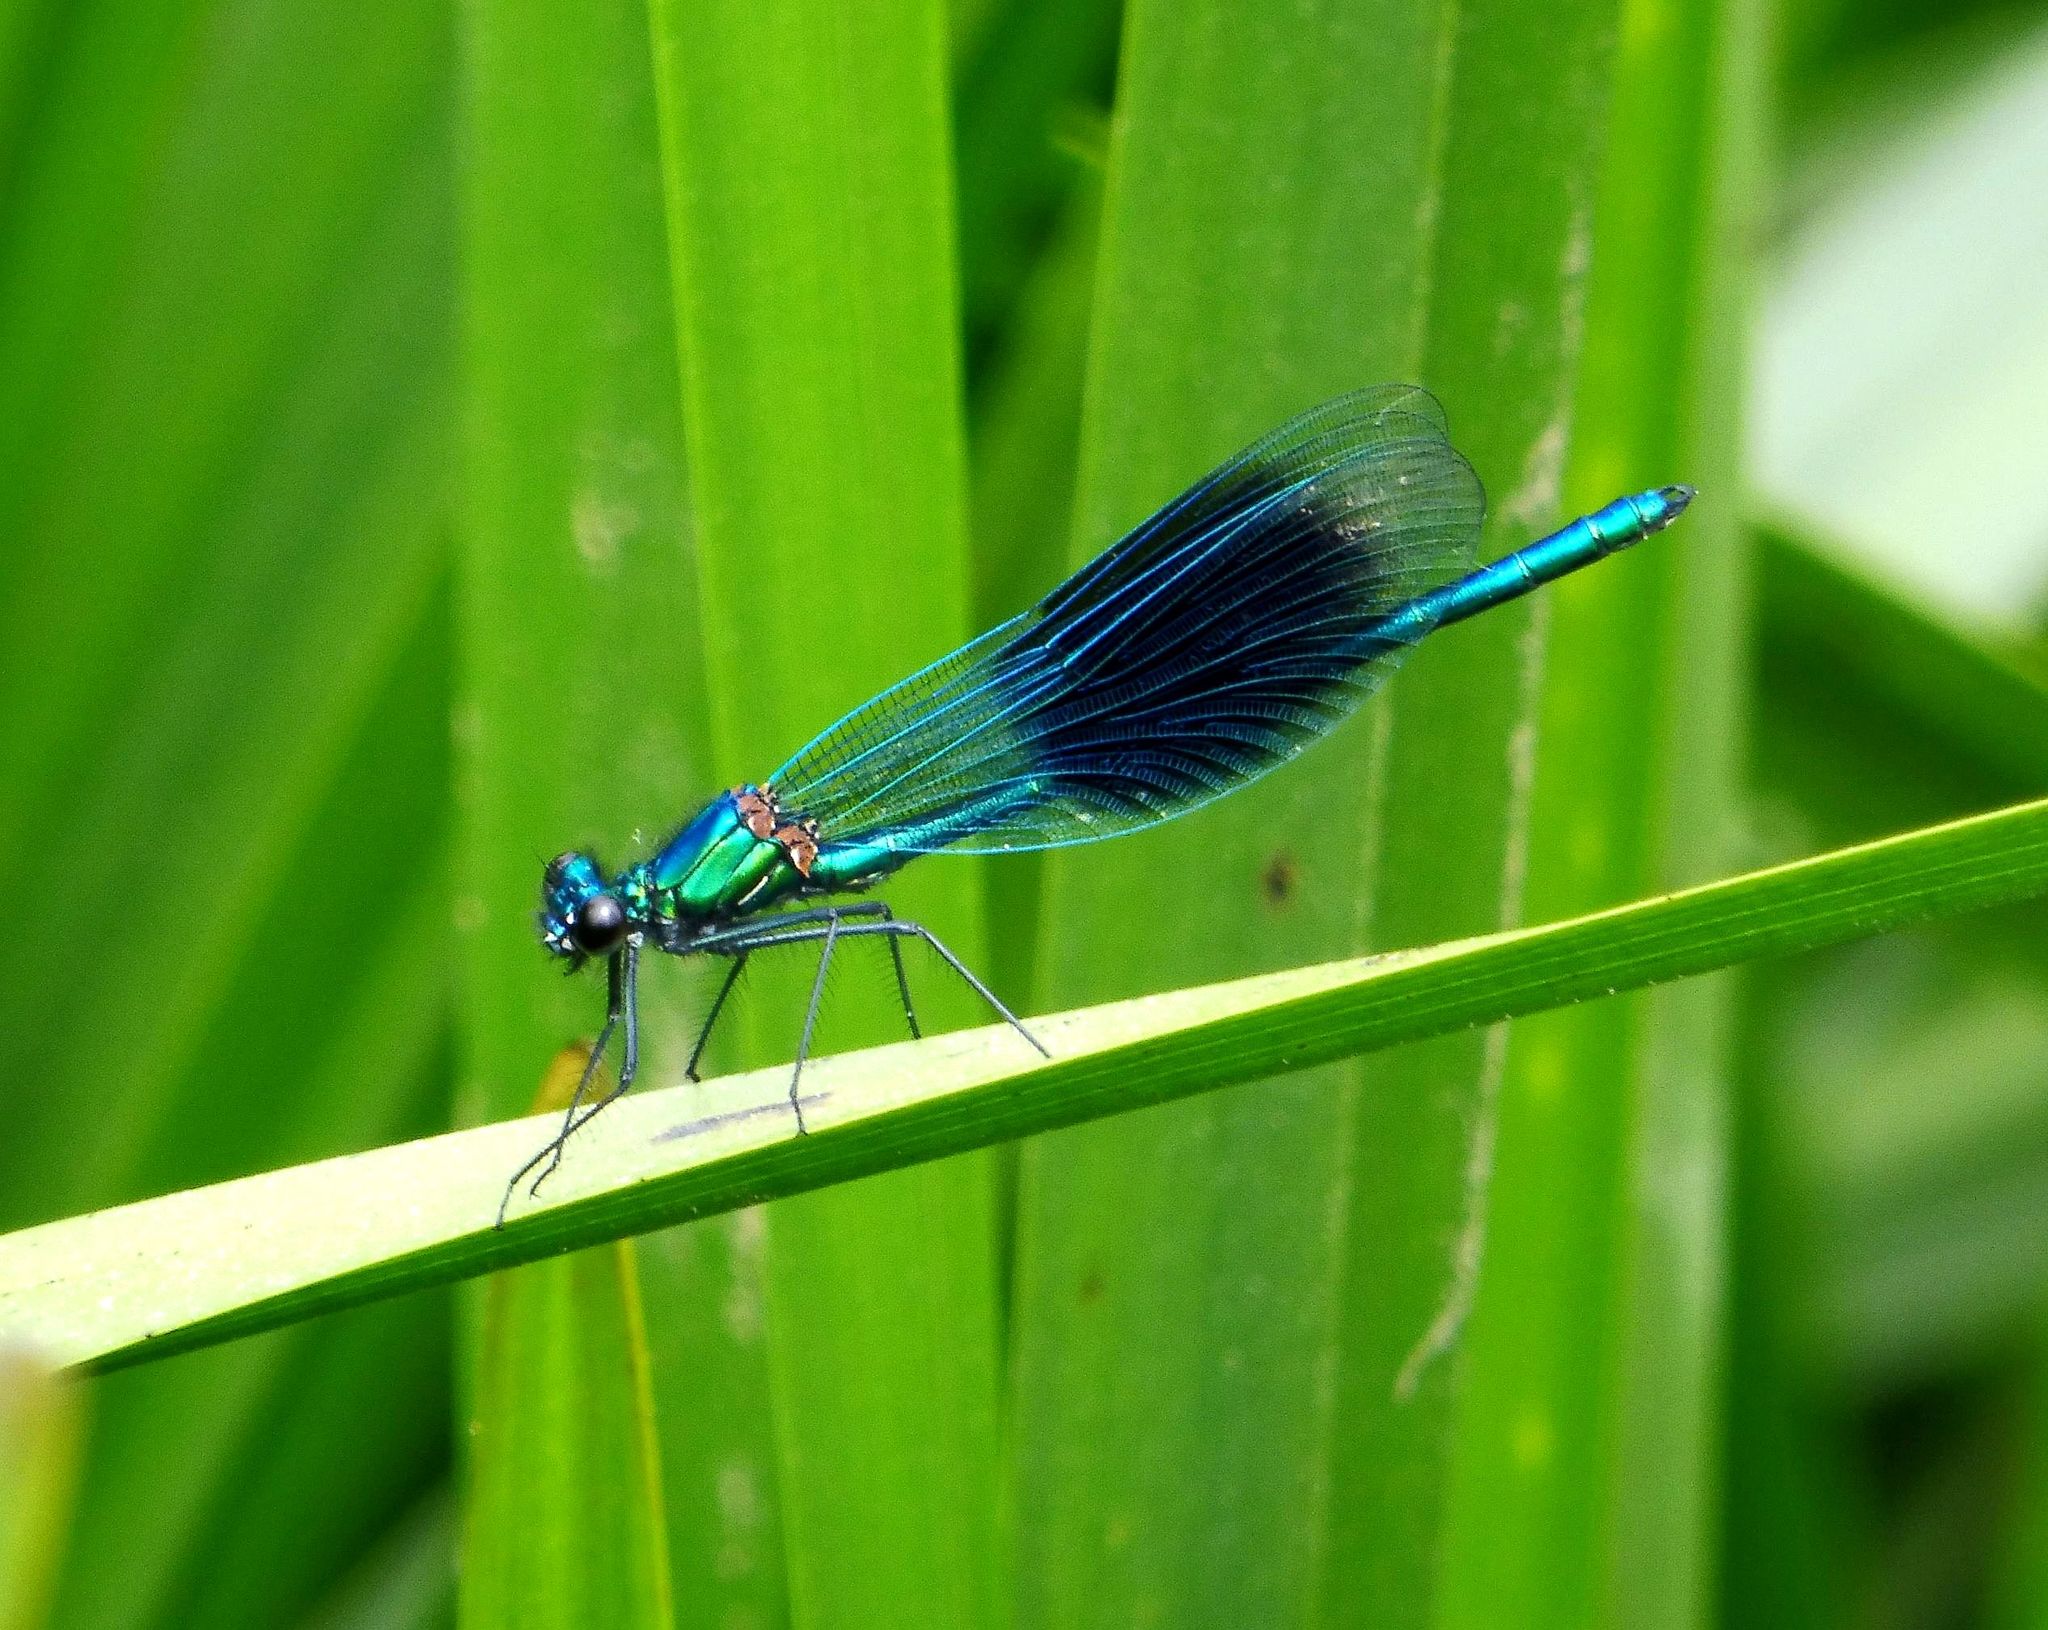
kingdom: Animalia
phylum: Arthropoda
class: Insecta
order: Odonata
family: Calopterygidae
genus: Calopteryx
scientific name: Calopteryx splendens
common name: Banded demoiselle
